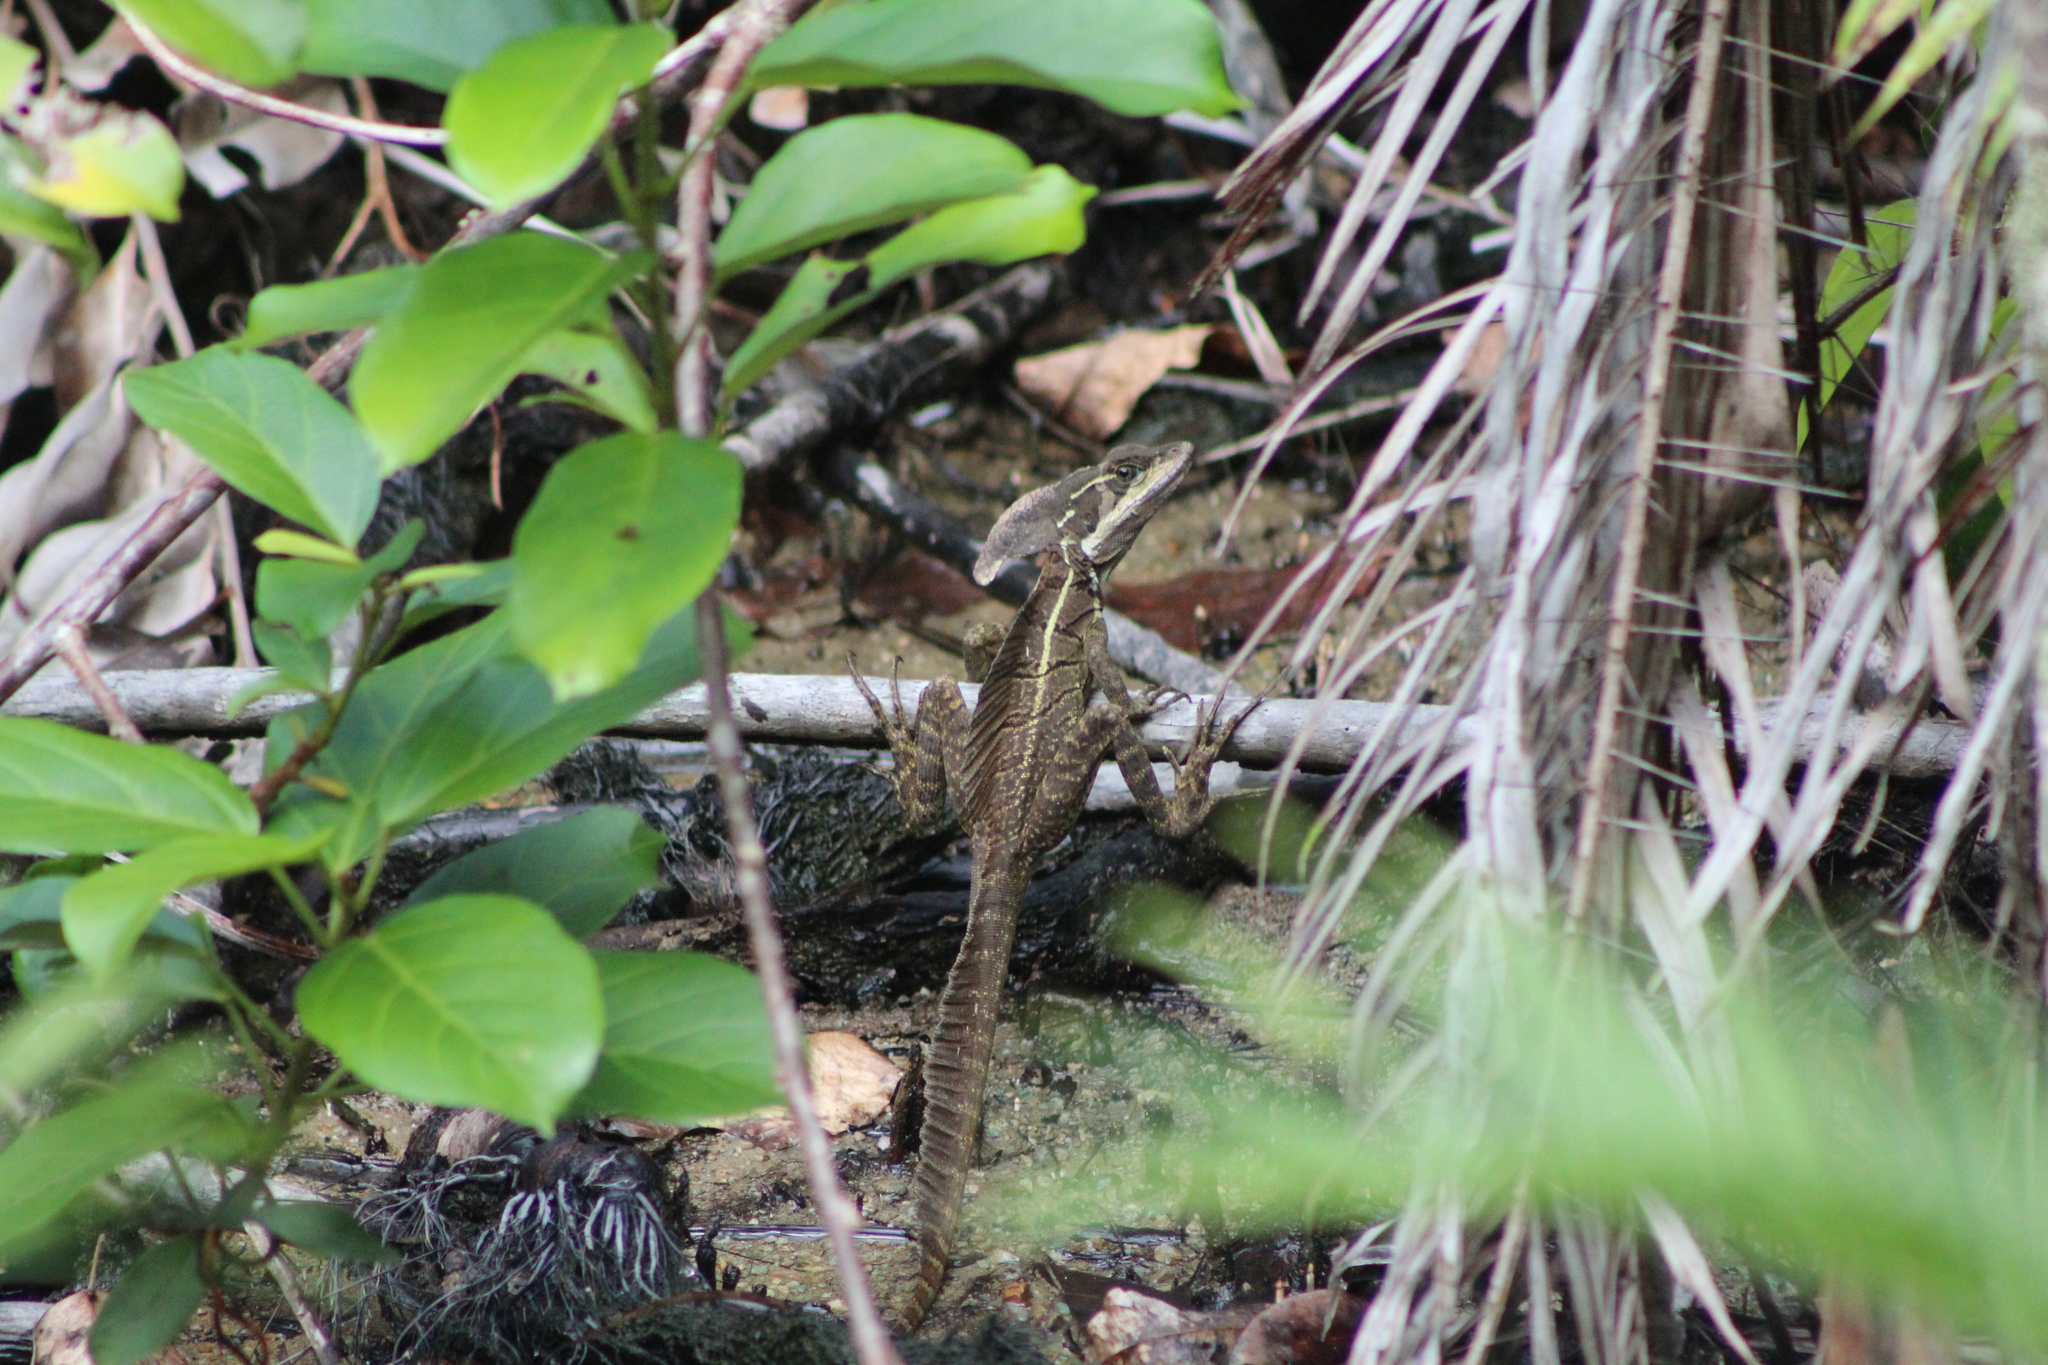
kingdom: Animalia
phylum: Chordata
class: Squamata
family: Corytophanidae
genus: Basiliscus
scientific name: Basiliscus basiliscus
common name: Common basilisk
